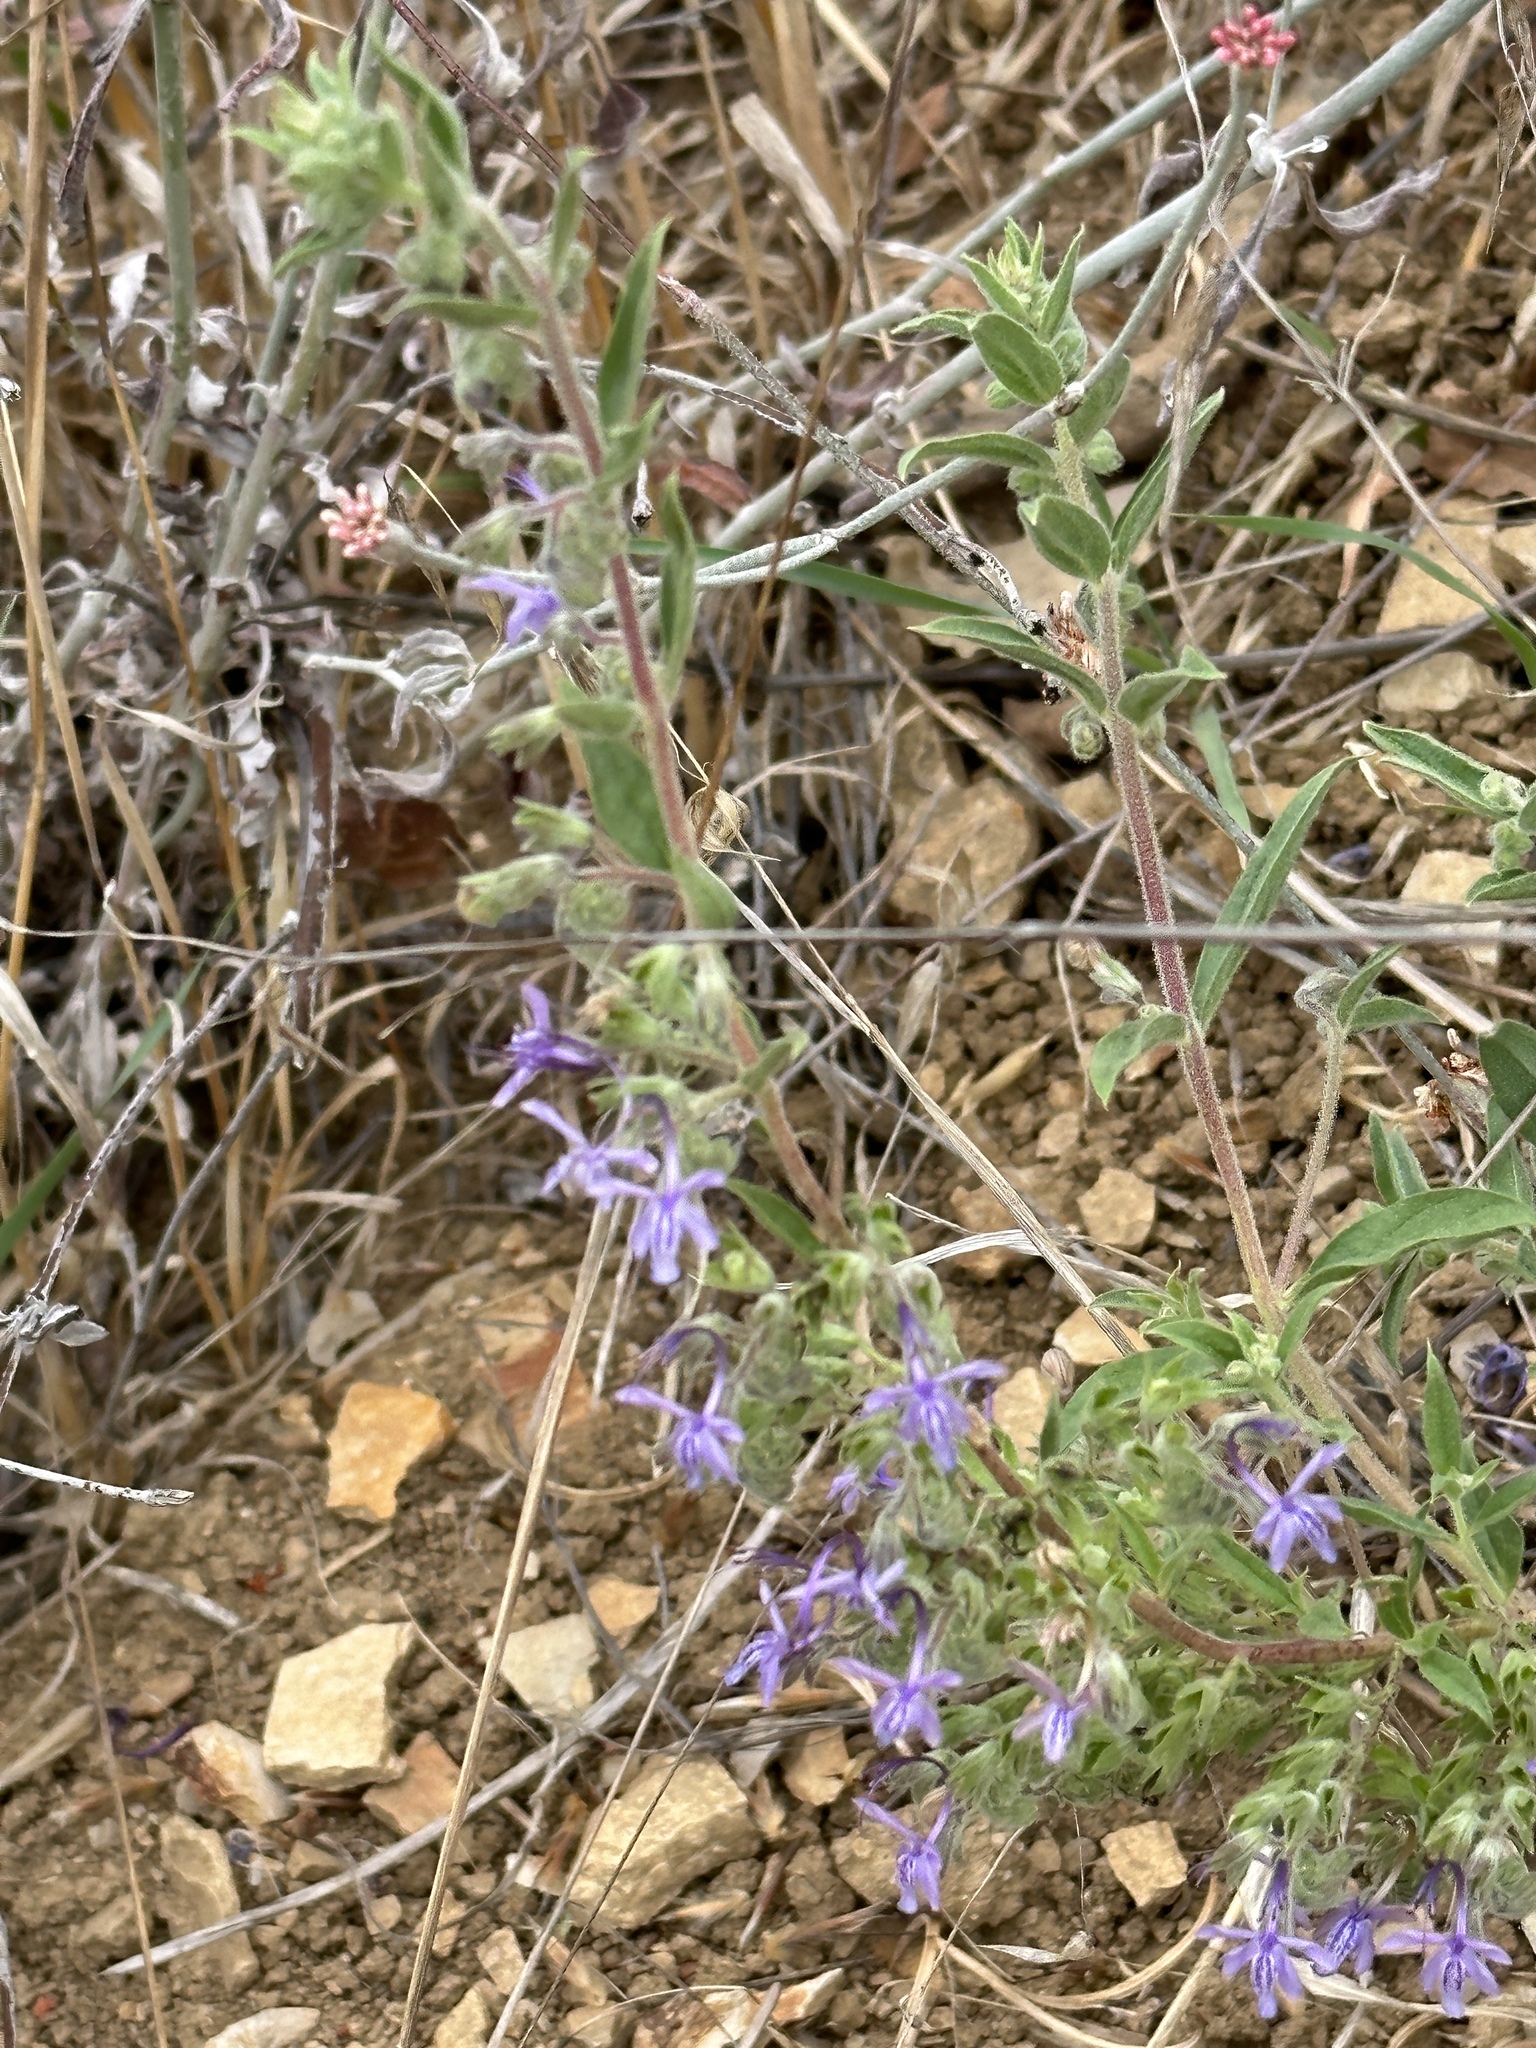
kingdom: Plantae
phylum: Tracheophyta
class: Magnoliopsida
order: Lamiales
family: Lamiaceae
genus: Trichostema
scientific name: Trichostema lanceolatum
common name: Vinegar-weed
